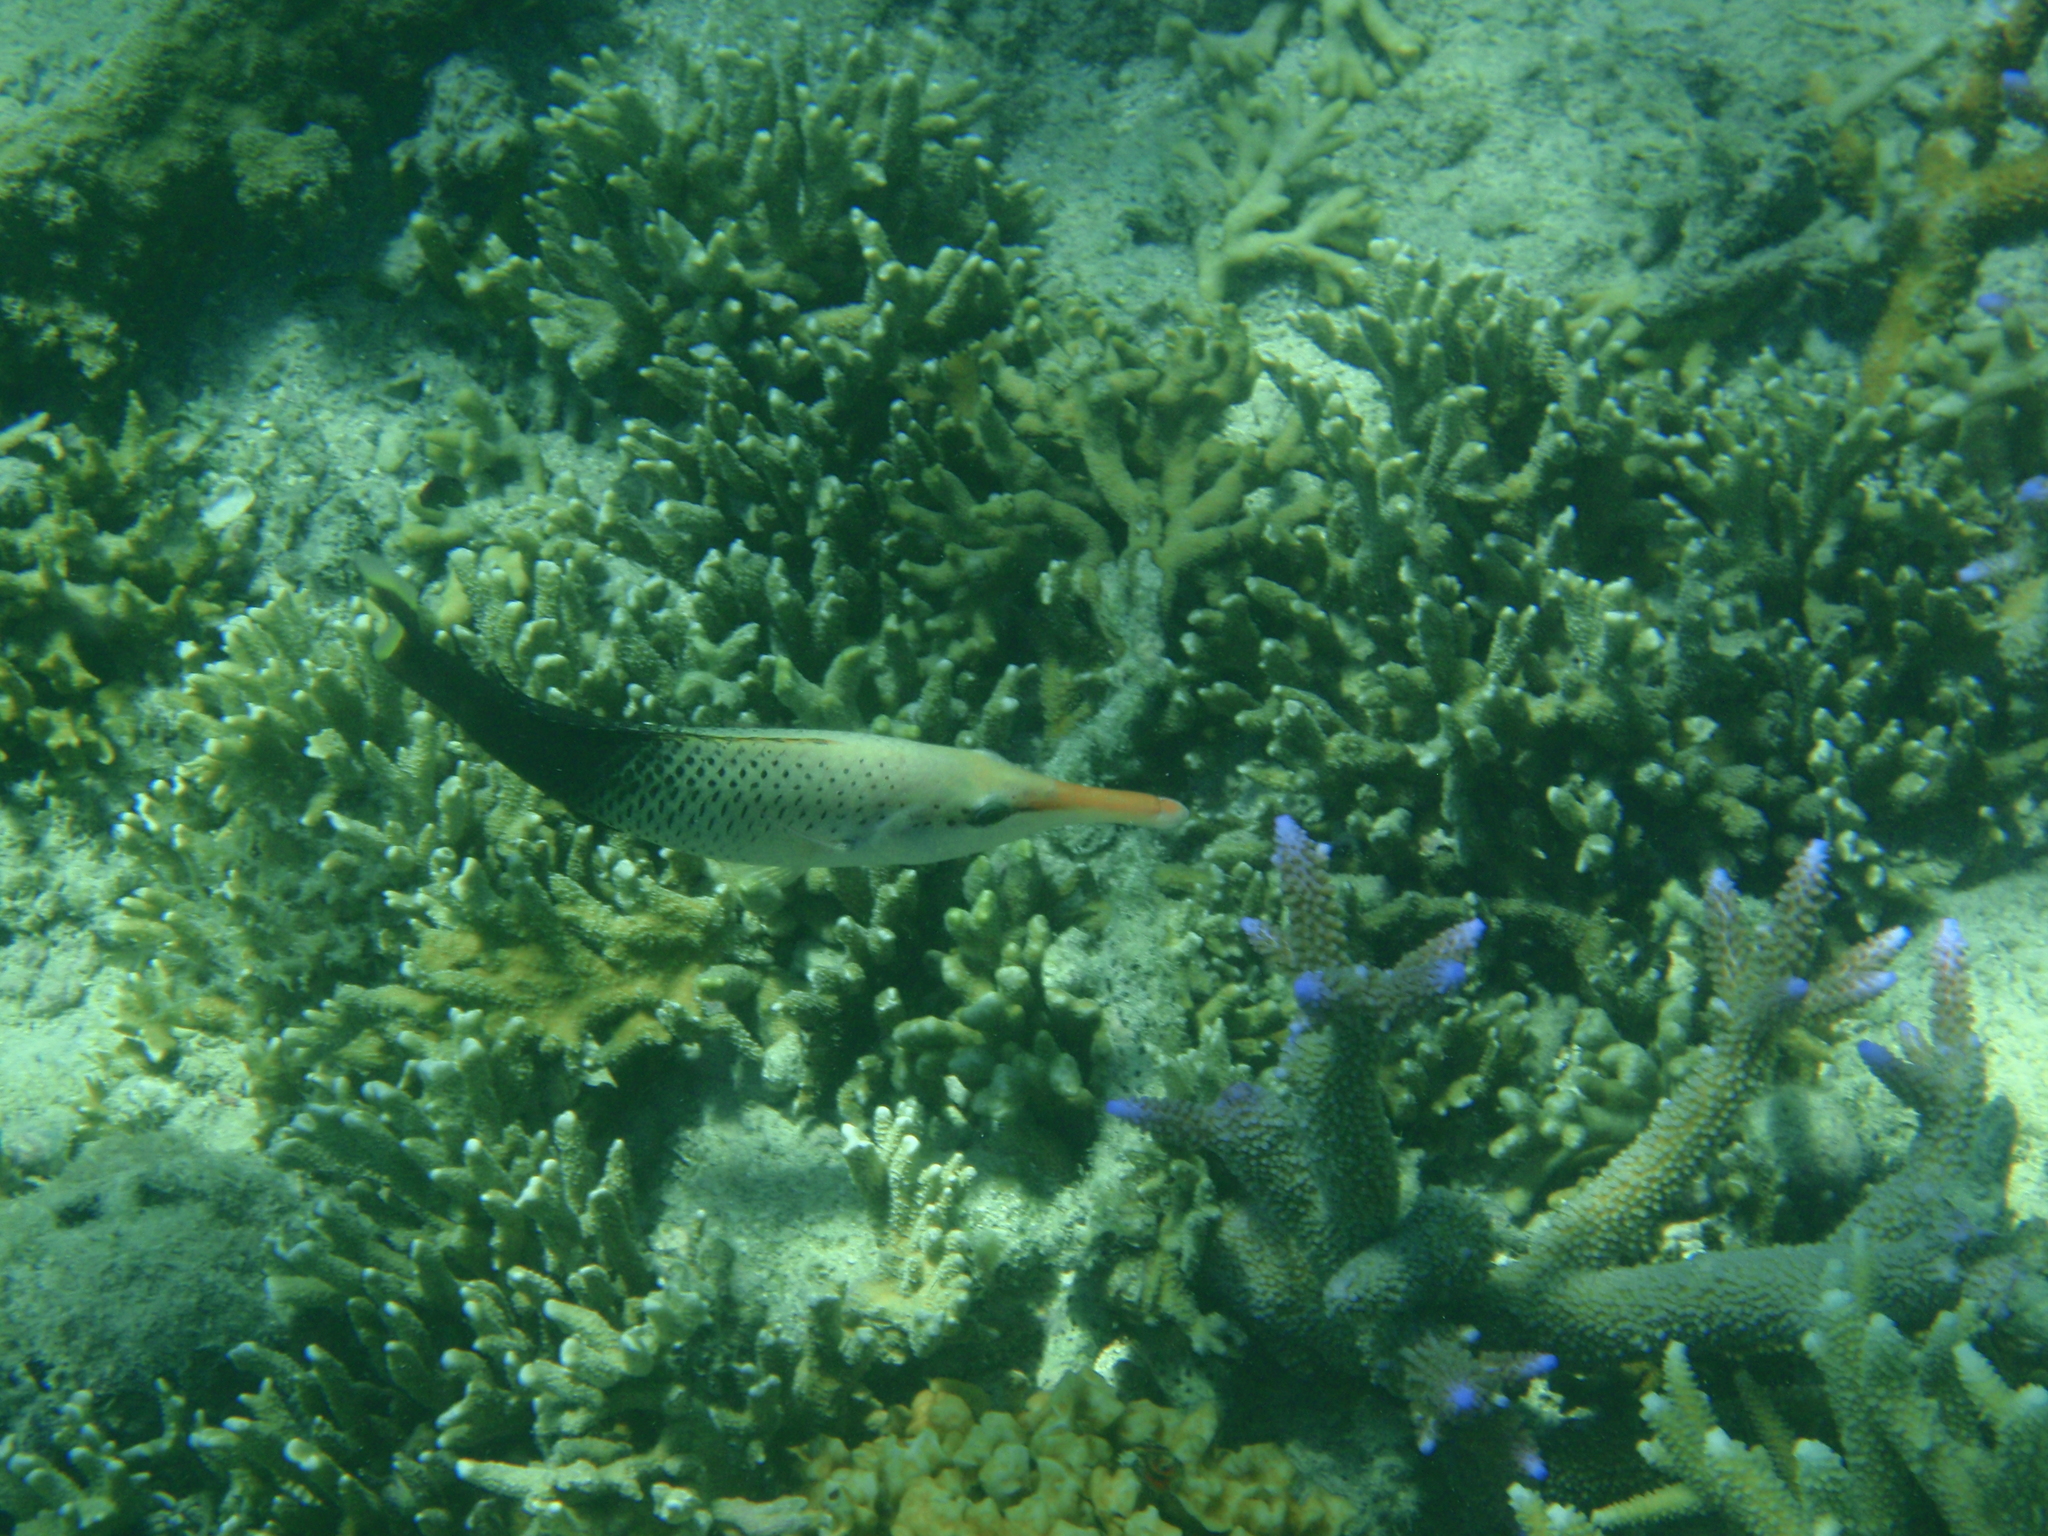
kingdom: Animalia
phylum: Chordata
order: Perciformes
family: Labridae
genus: Gomphosus
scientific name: Gomphosus varius
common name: Bird wrasse
